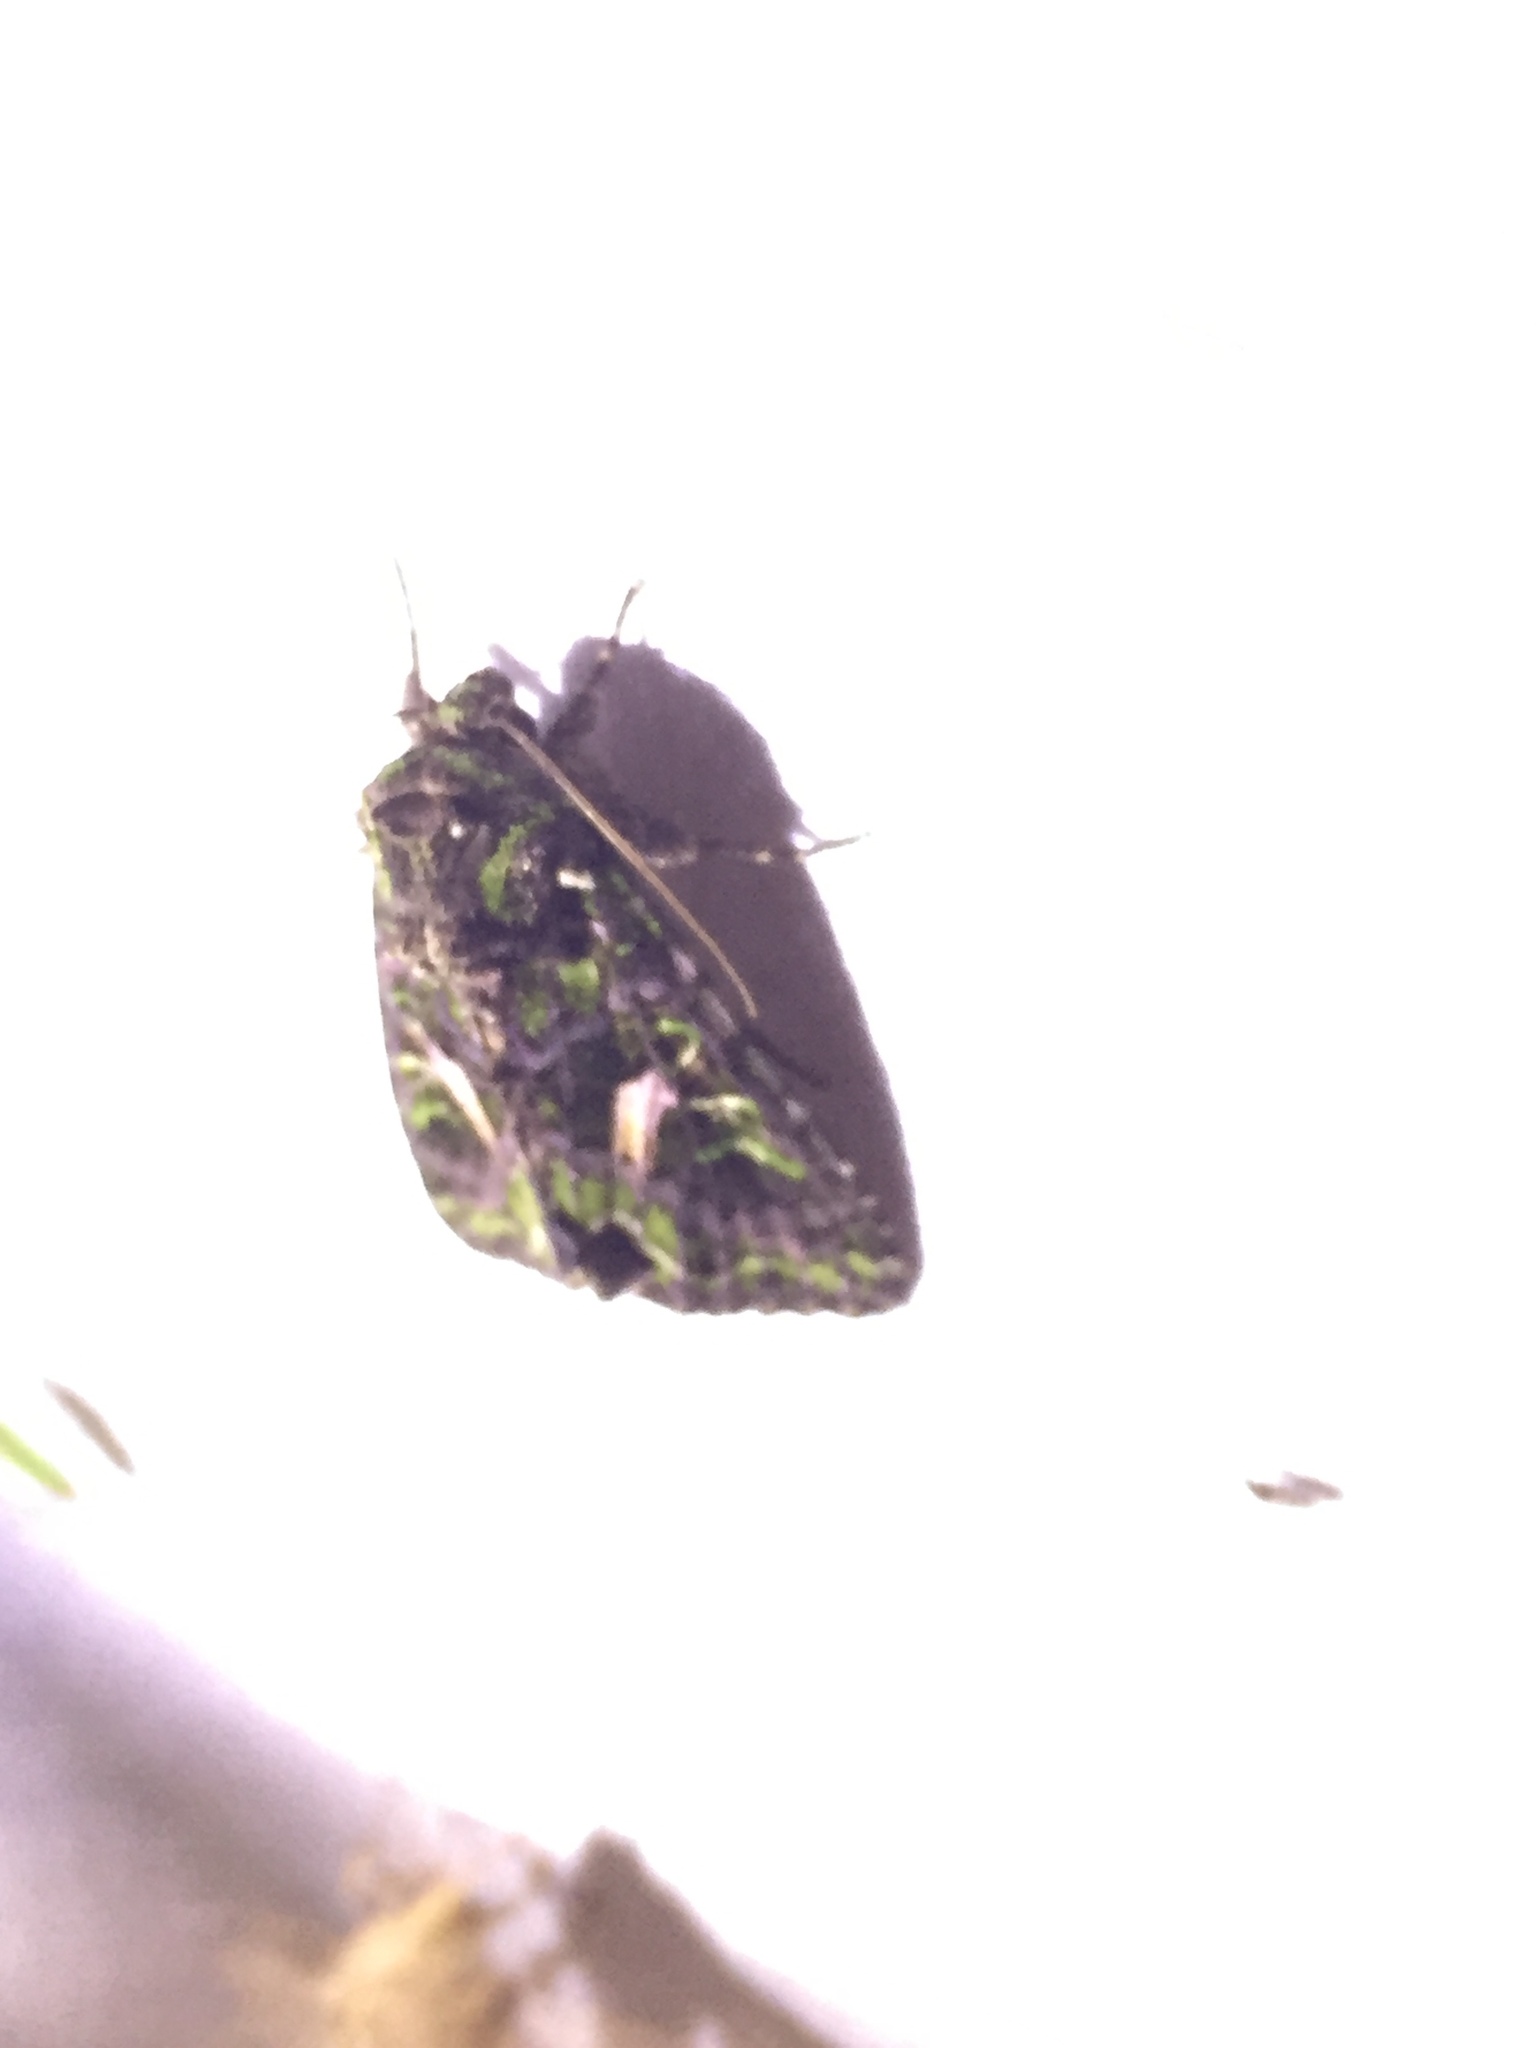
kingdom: Animalia
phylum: Arthropoda
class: Insecta
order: Lepidoptera
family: Noctuidae
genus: Trachea
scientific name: Trachea atriplicis
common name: Orache moth
